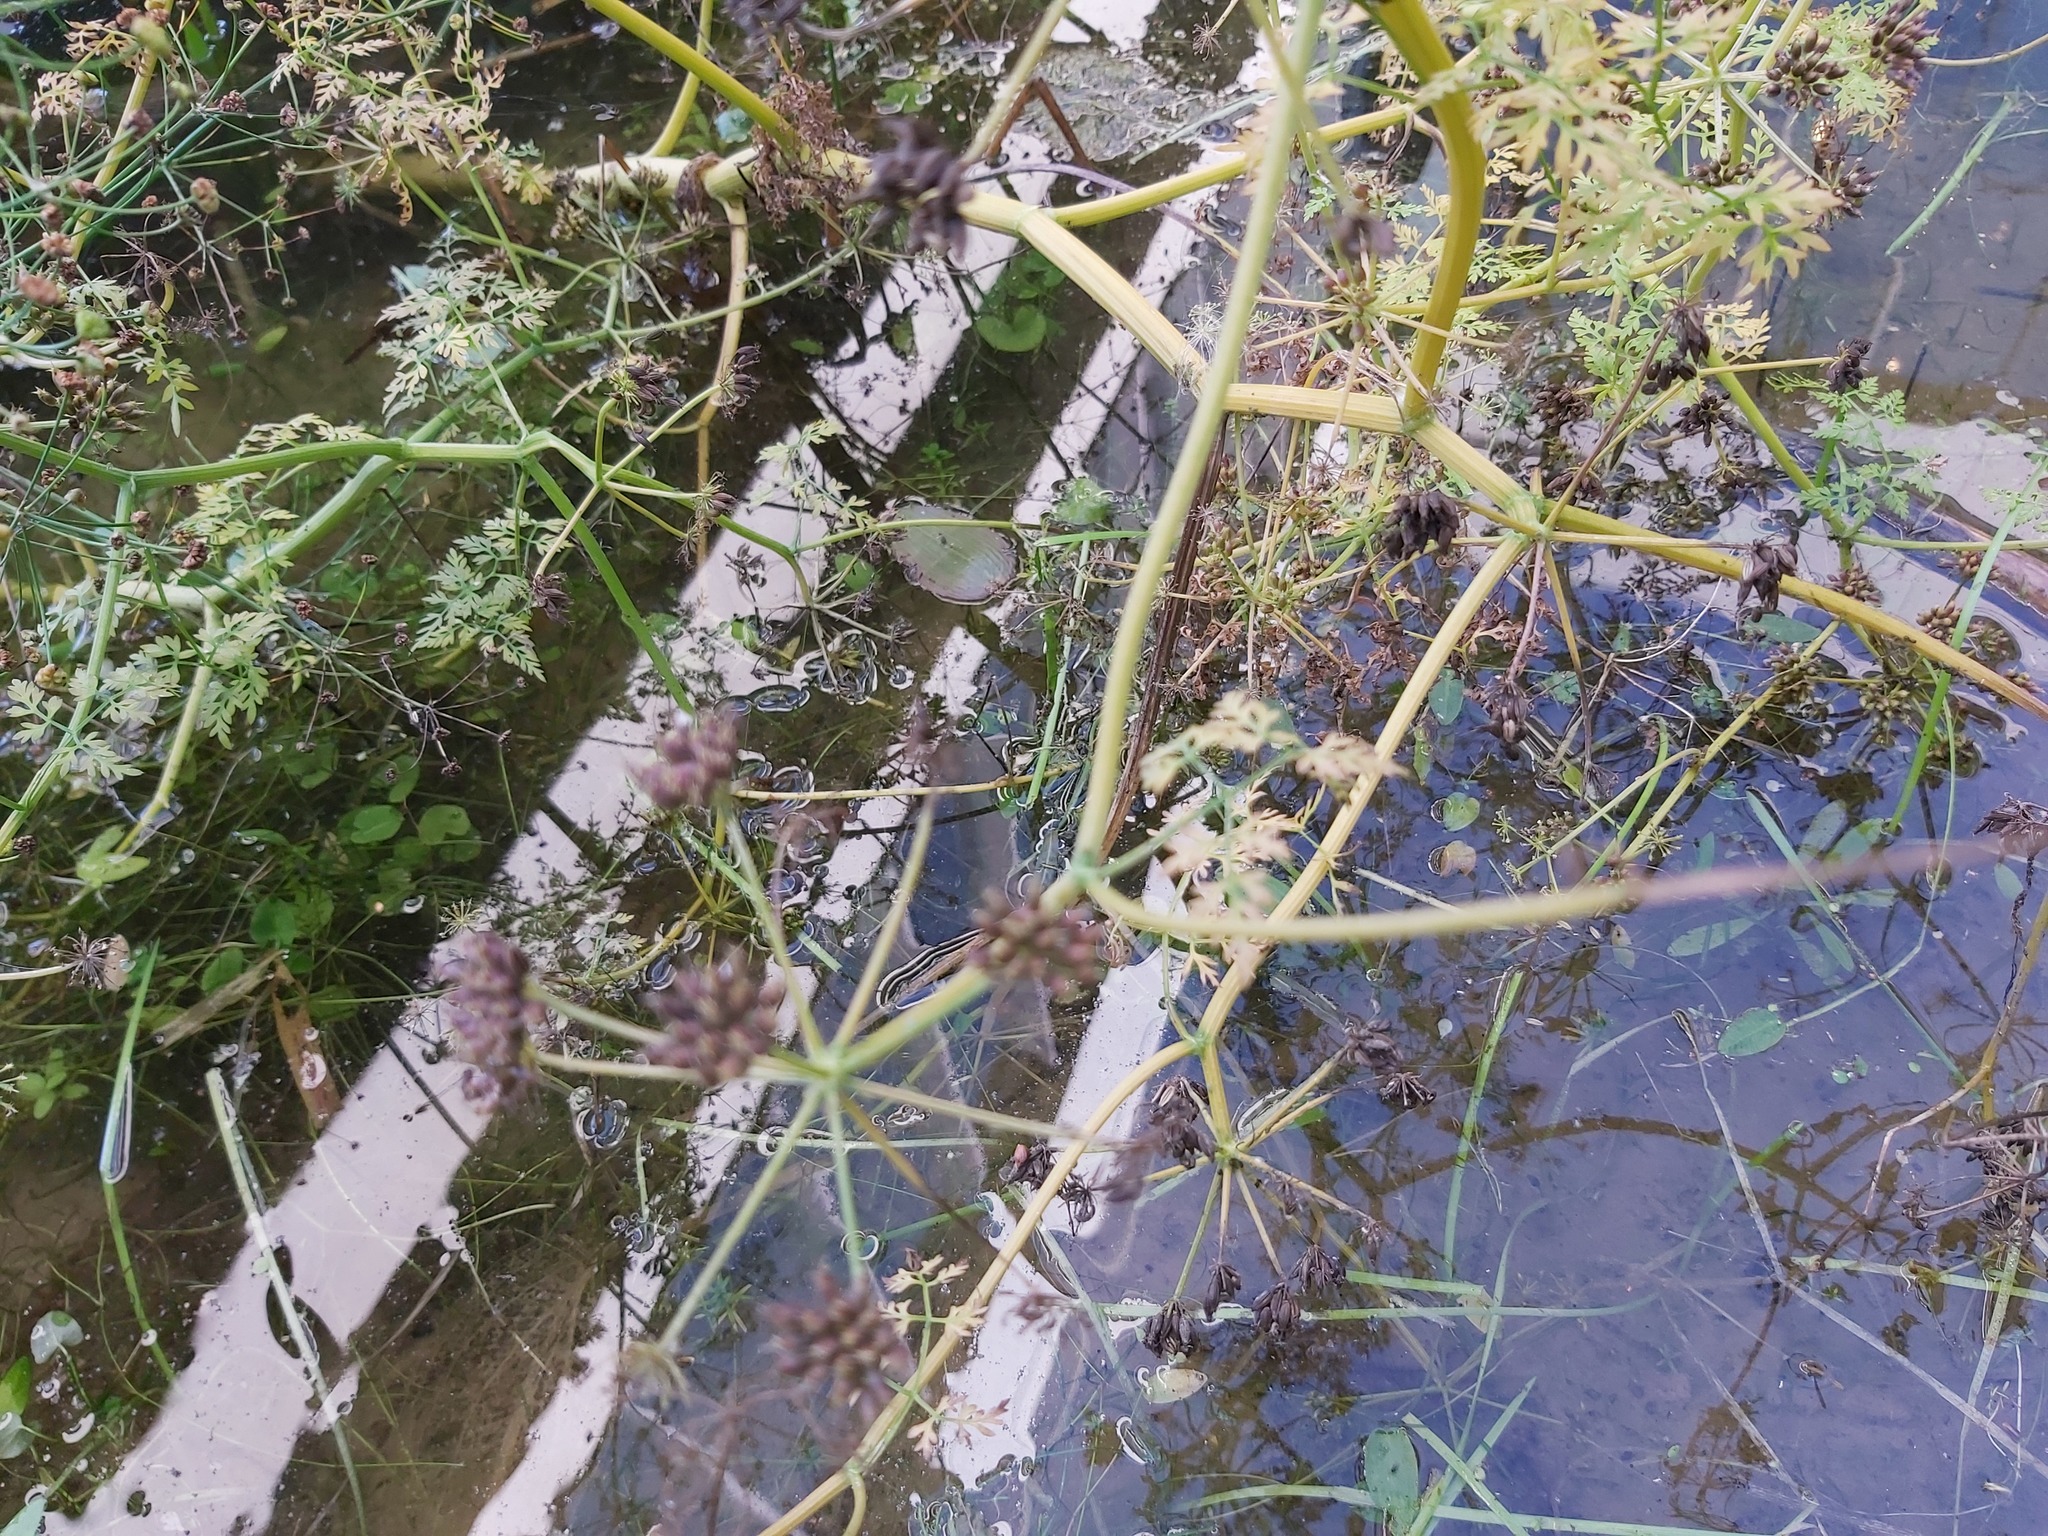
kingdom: Plantae
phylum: Tracheophyta
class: Magnoliopsida
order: Apiales
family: Apiaceae
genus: Oenanthe
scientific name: Oenanthe aquatica
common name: Fine-leaved water-dropwort
